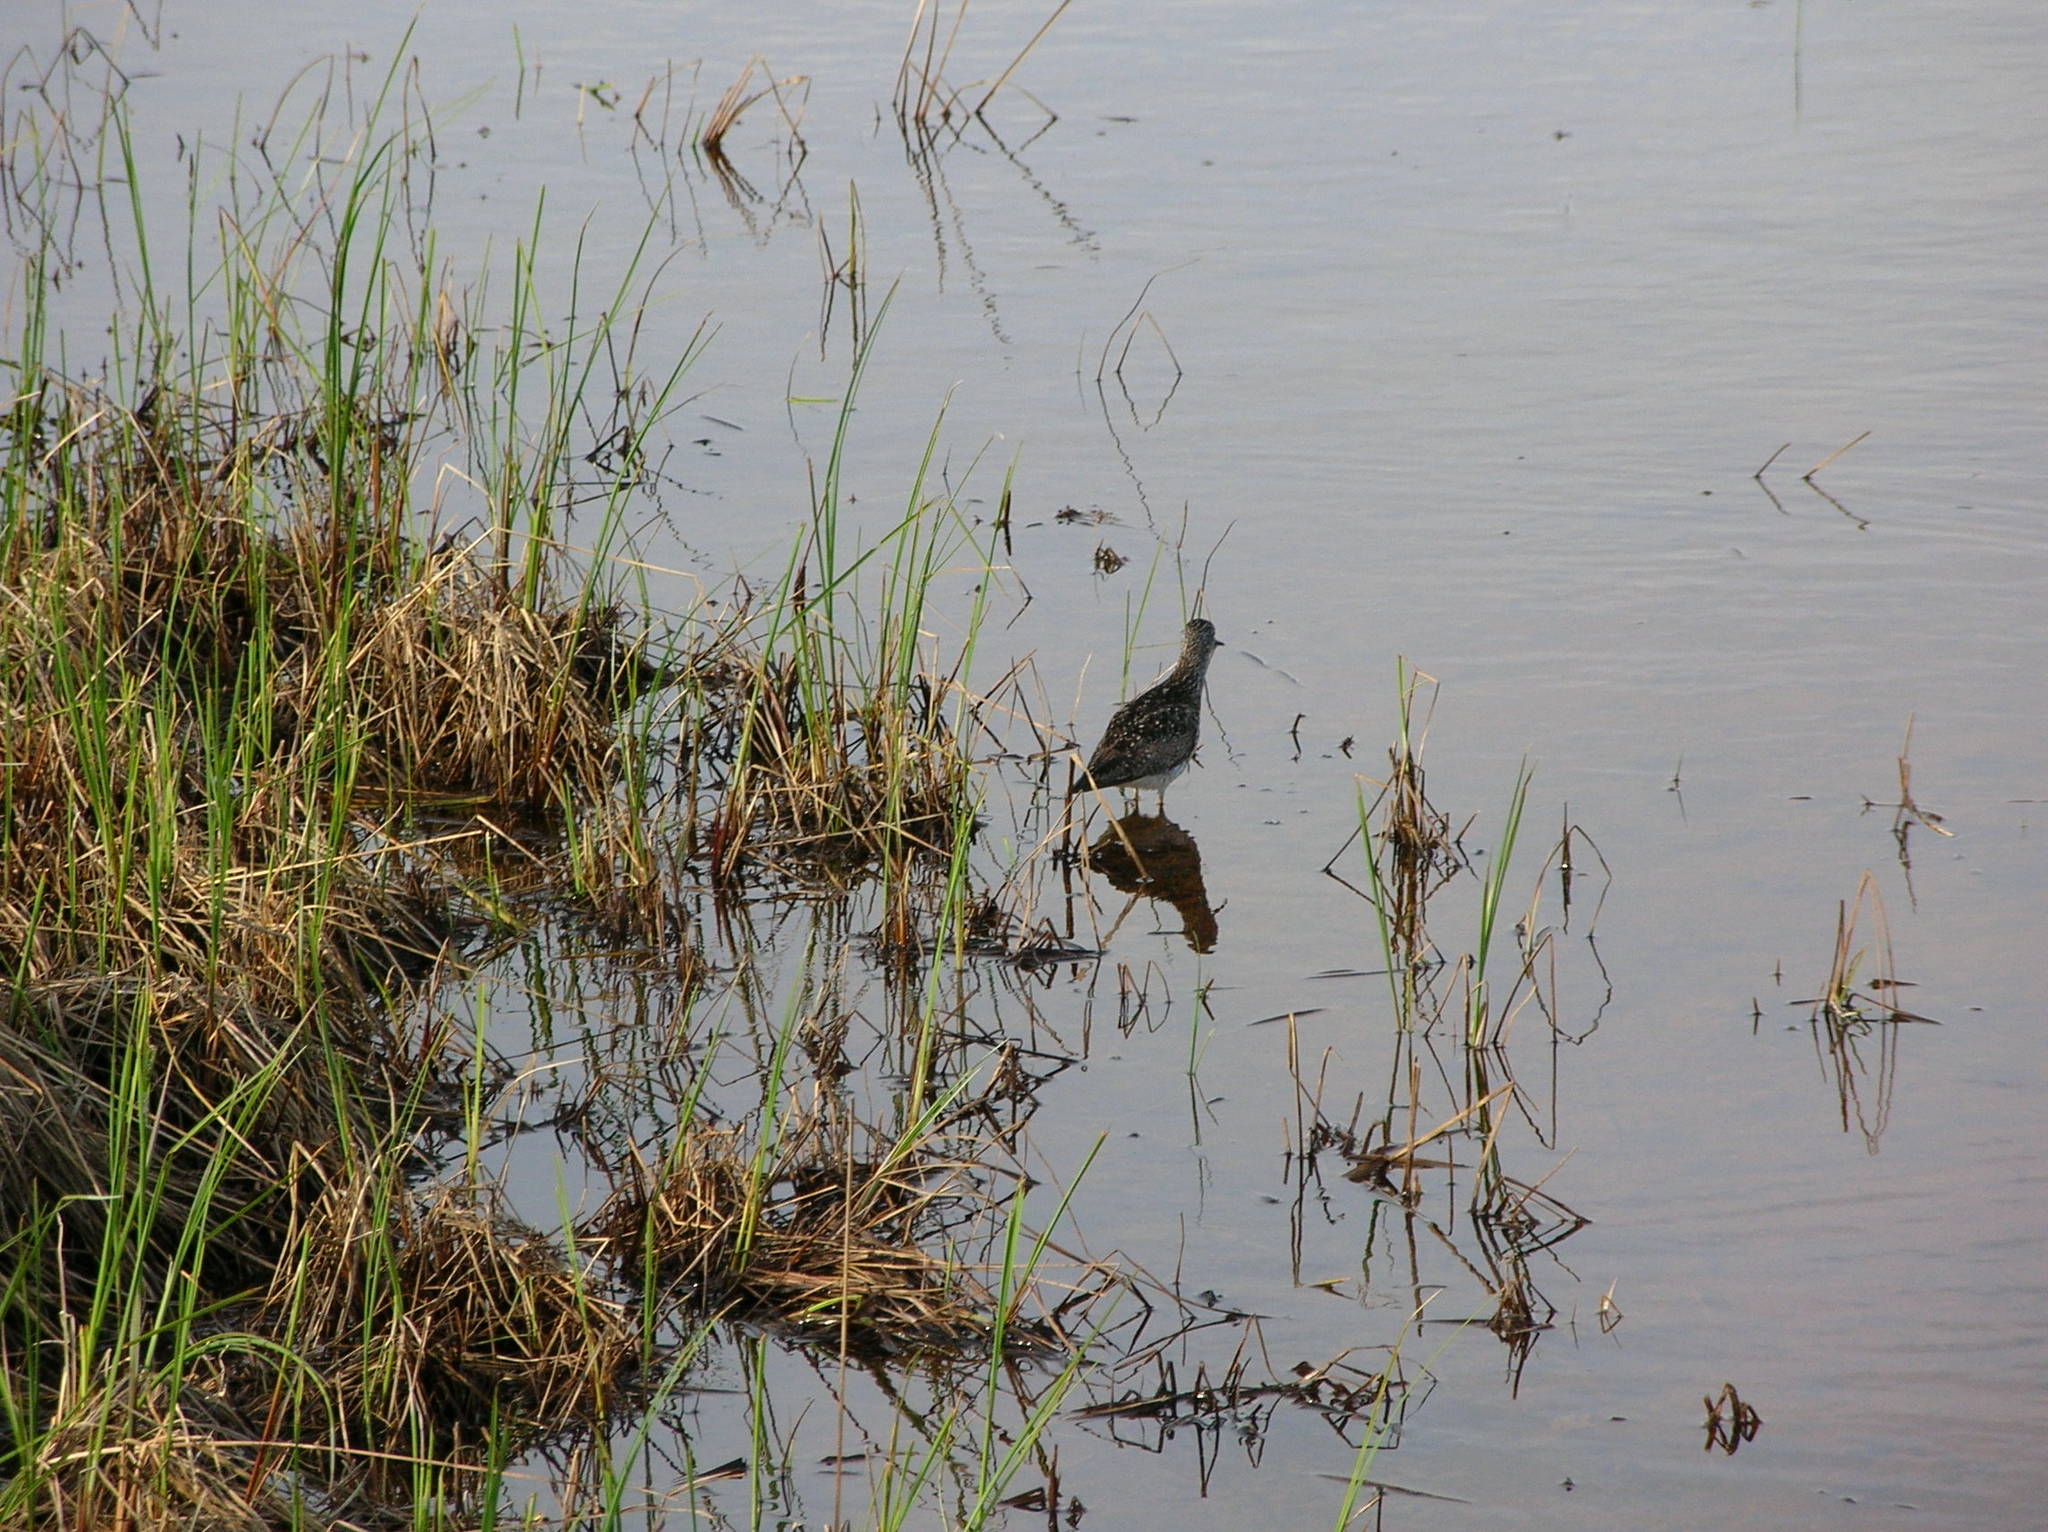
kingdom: Animalia
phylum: Chordata
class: Aves
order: Charadriiformes
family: Scolopacidae
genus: Tringa
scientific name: Tringa
